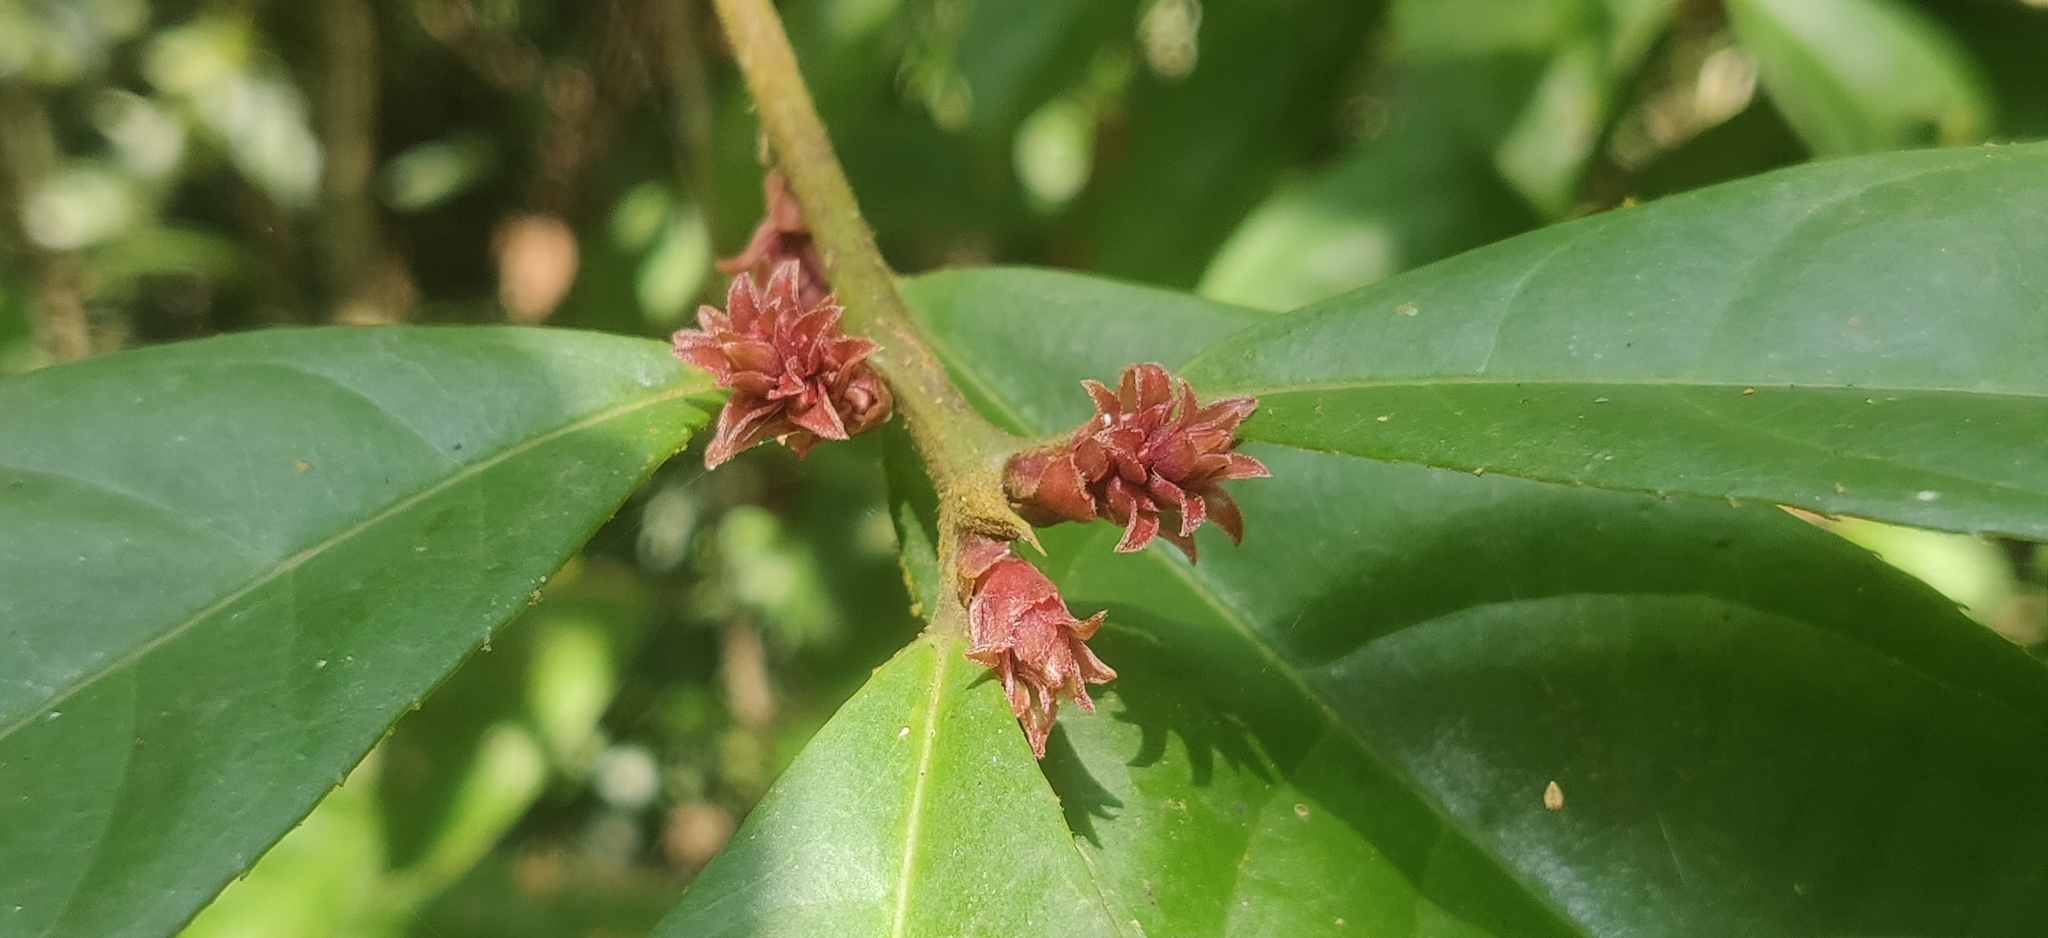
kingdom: Plantae
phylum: Tracheophyta
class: Magnoliopsida
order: Ericales
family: Symplocaceae
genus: Symplocos
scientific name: Symplocos macrophylla
